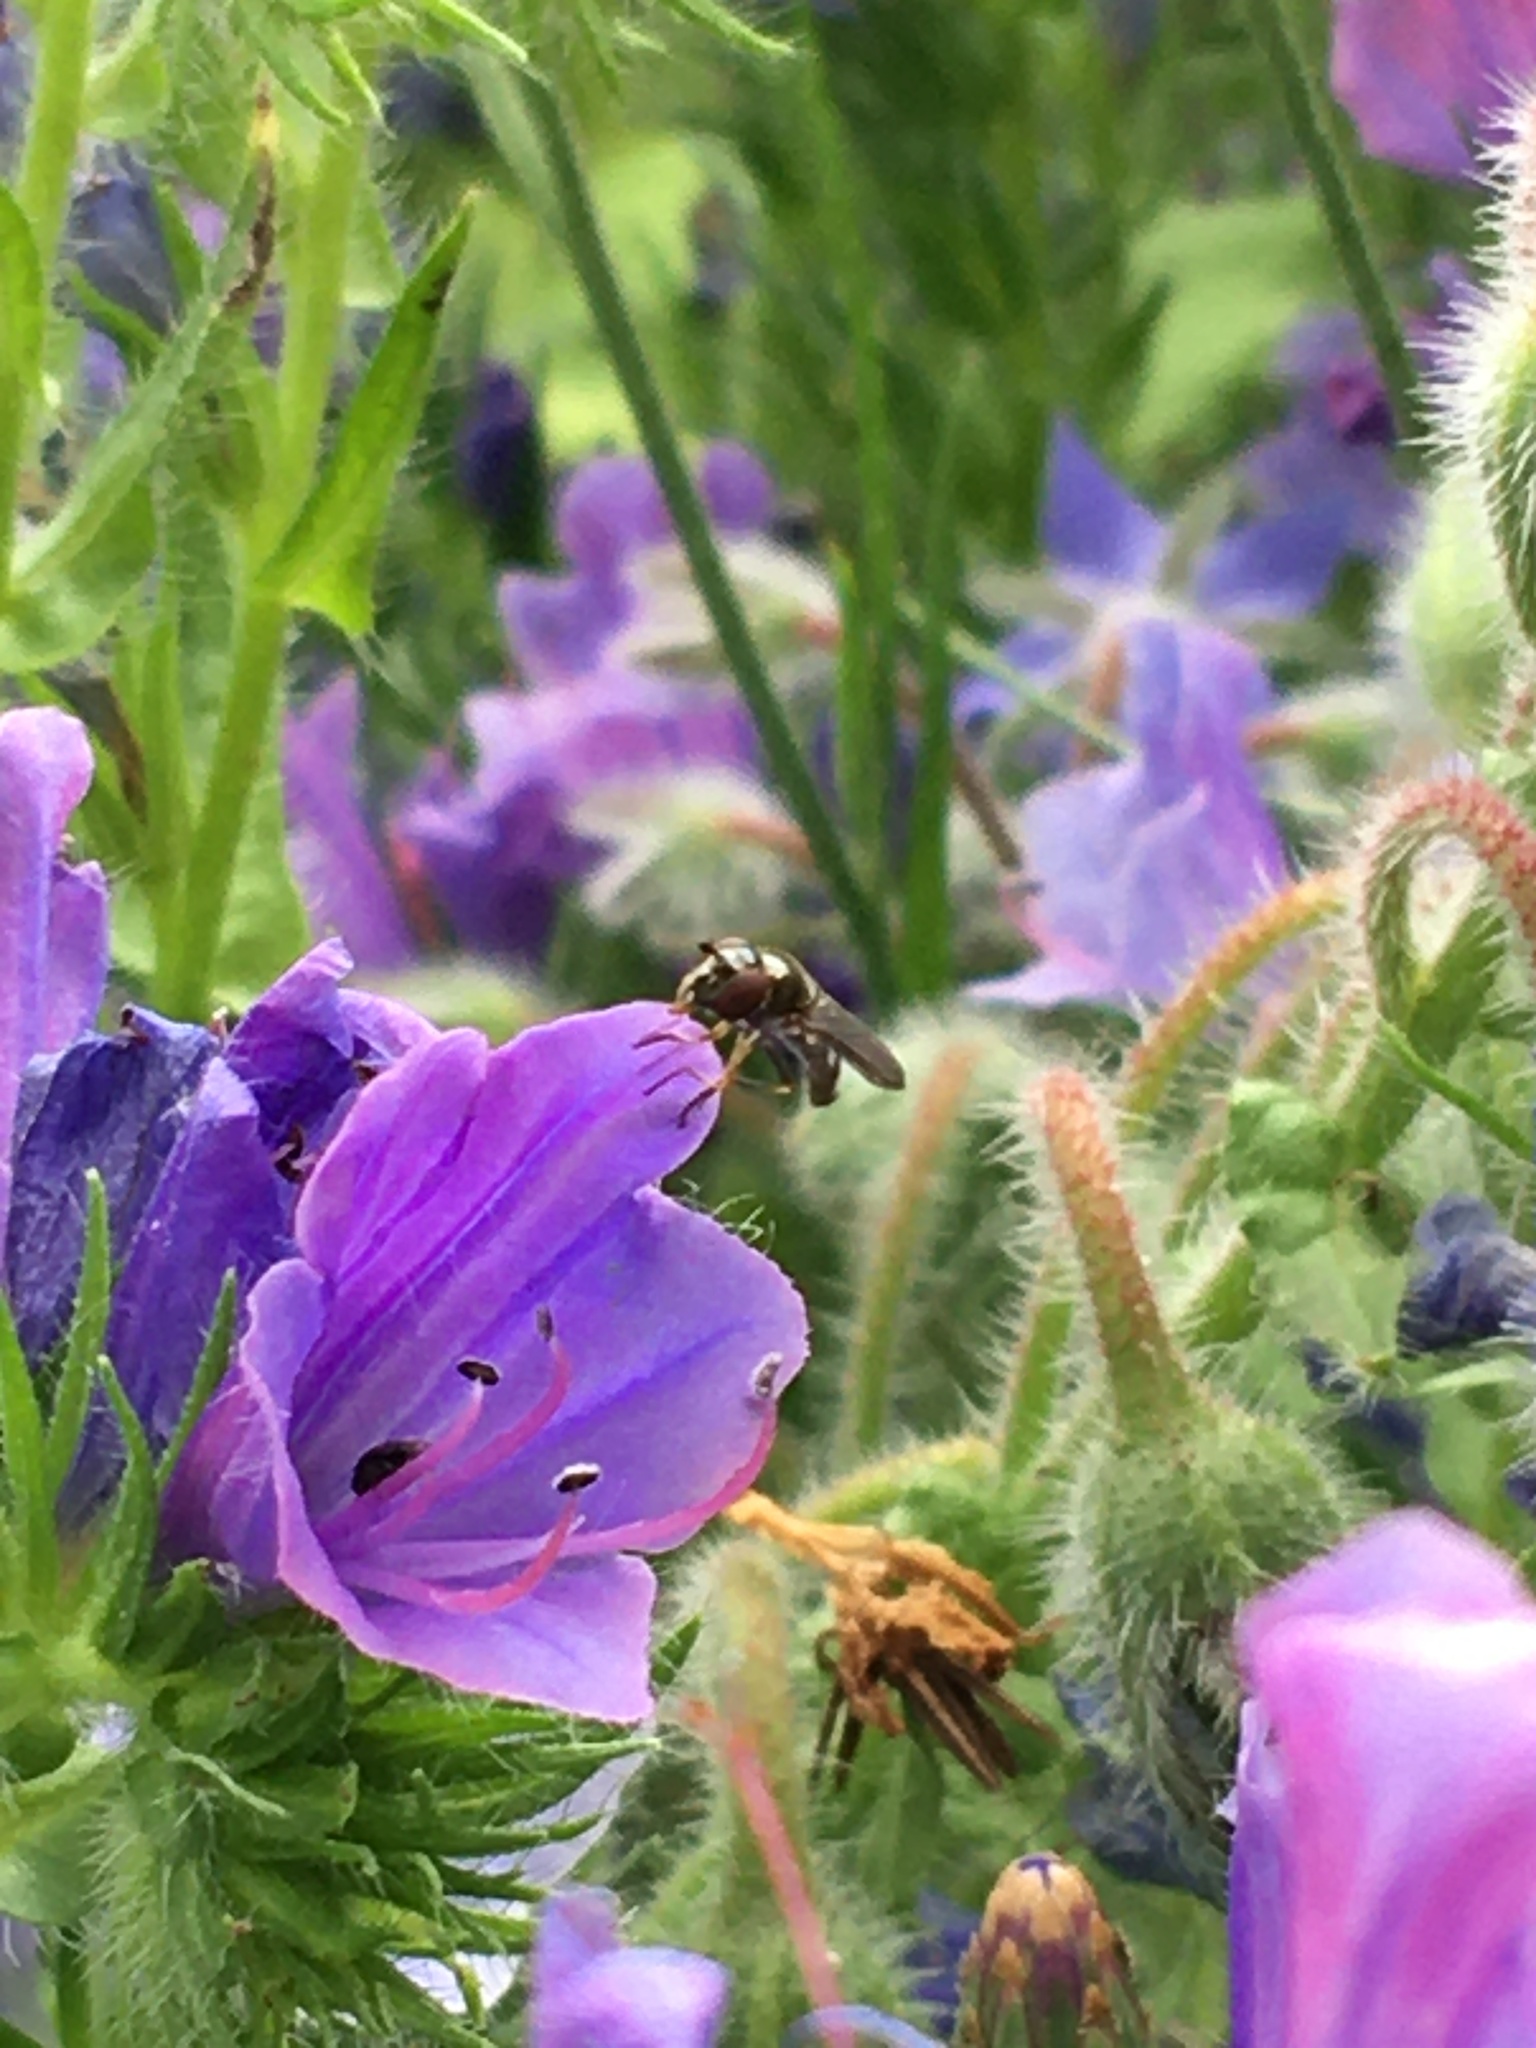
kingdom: Animalia
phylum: Arthropoda
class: Insecta
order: Diptera
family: Syrphidae
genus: Platycheirus
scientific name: Platycheirus albimanus
